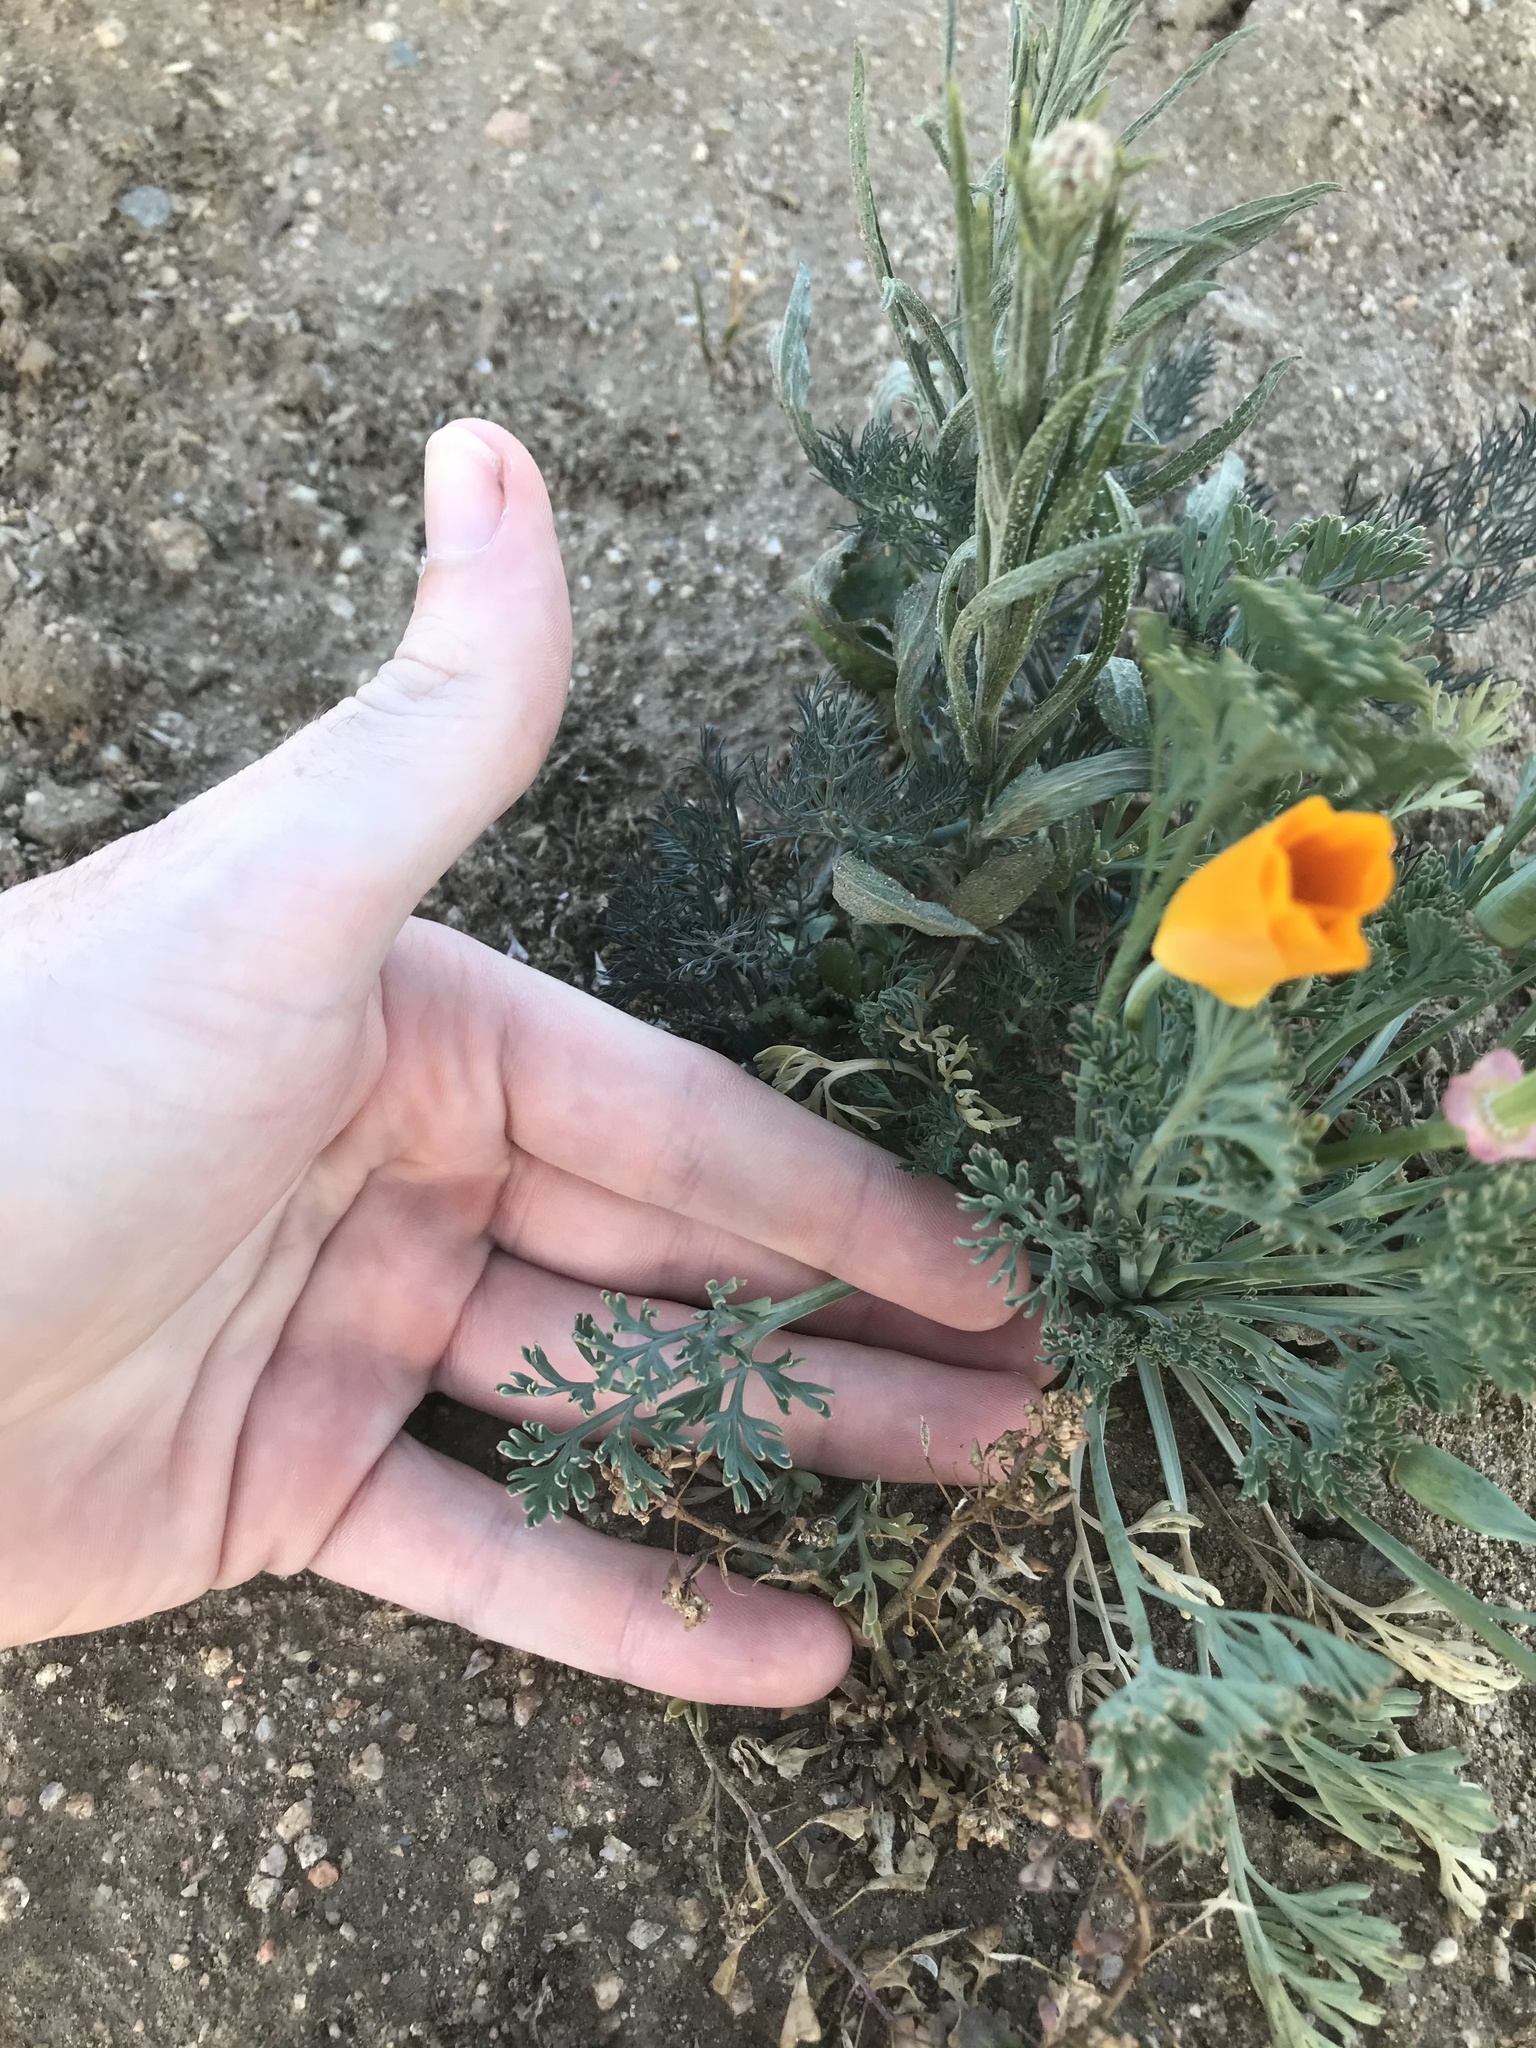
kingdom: Plantae
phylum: Tracheophyta
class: Magnoliopsida
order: Ranunculales
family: Papaveraceae
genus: Eschscholzia
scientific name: Eschscholzia californica
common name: California poppy
